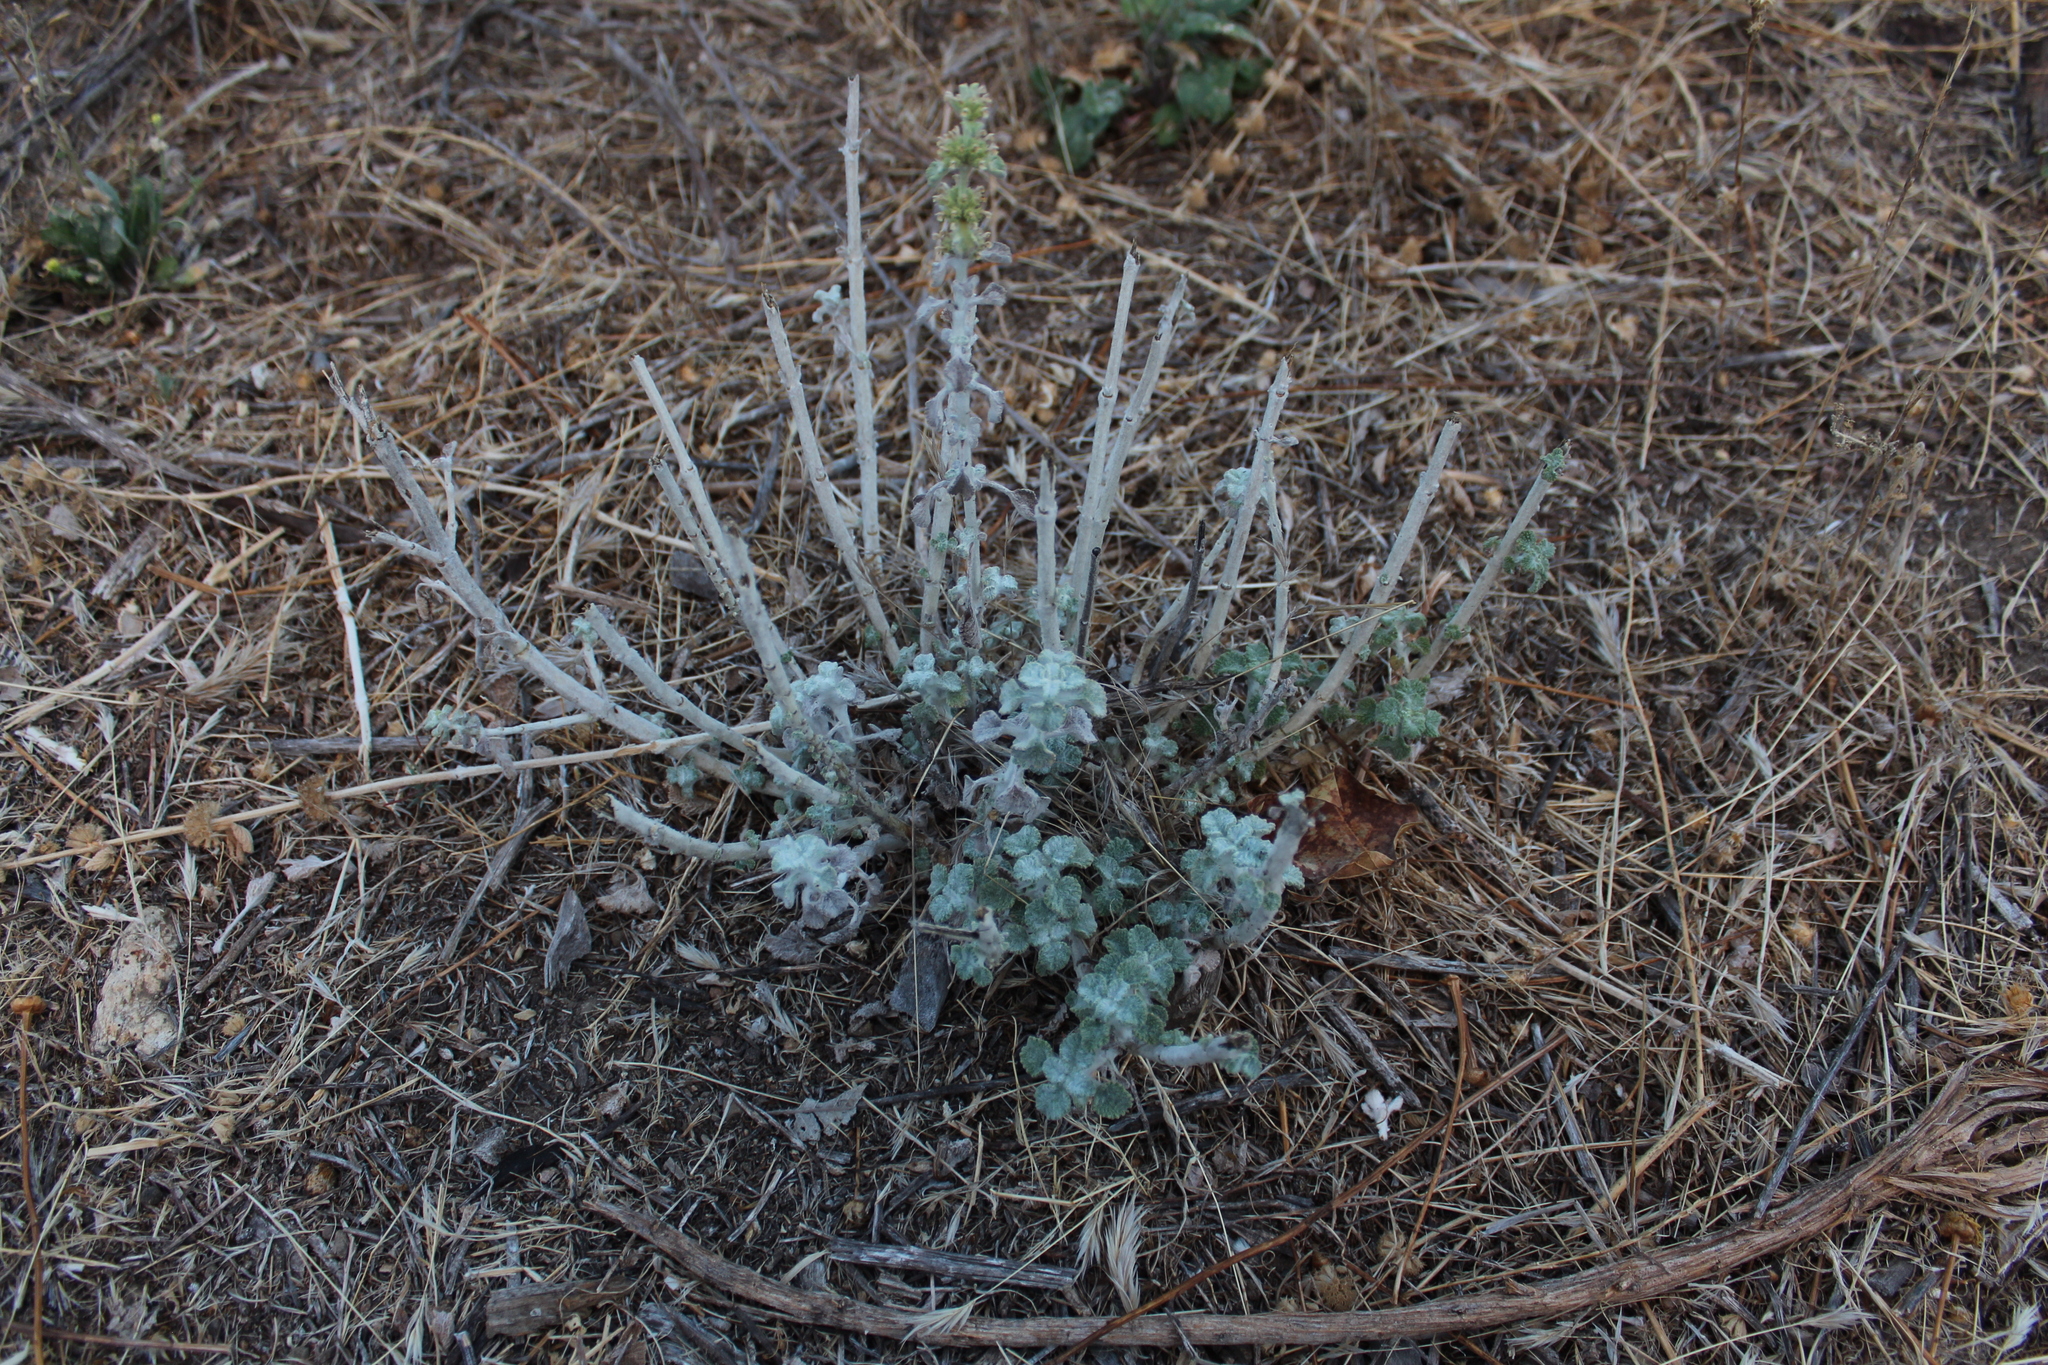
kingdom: Plantae
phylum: Tracheophyta
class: Magnoliopsida
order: Lamiales
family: Lamiaceae
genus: Marrubium
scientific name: Marrubium vulgare
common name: Horehound
